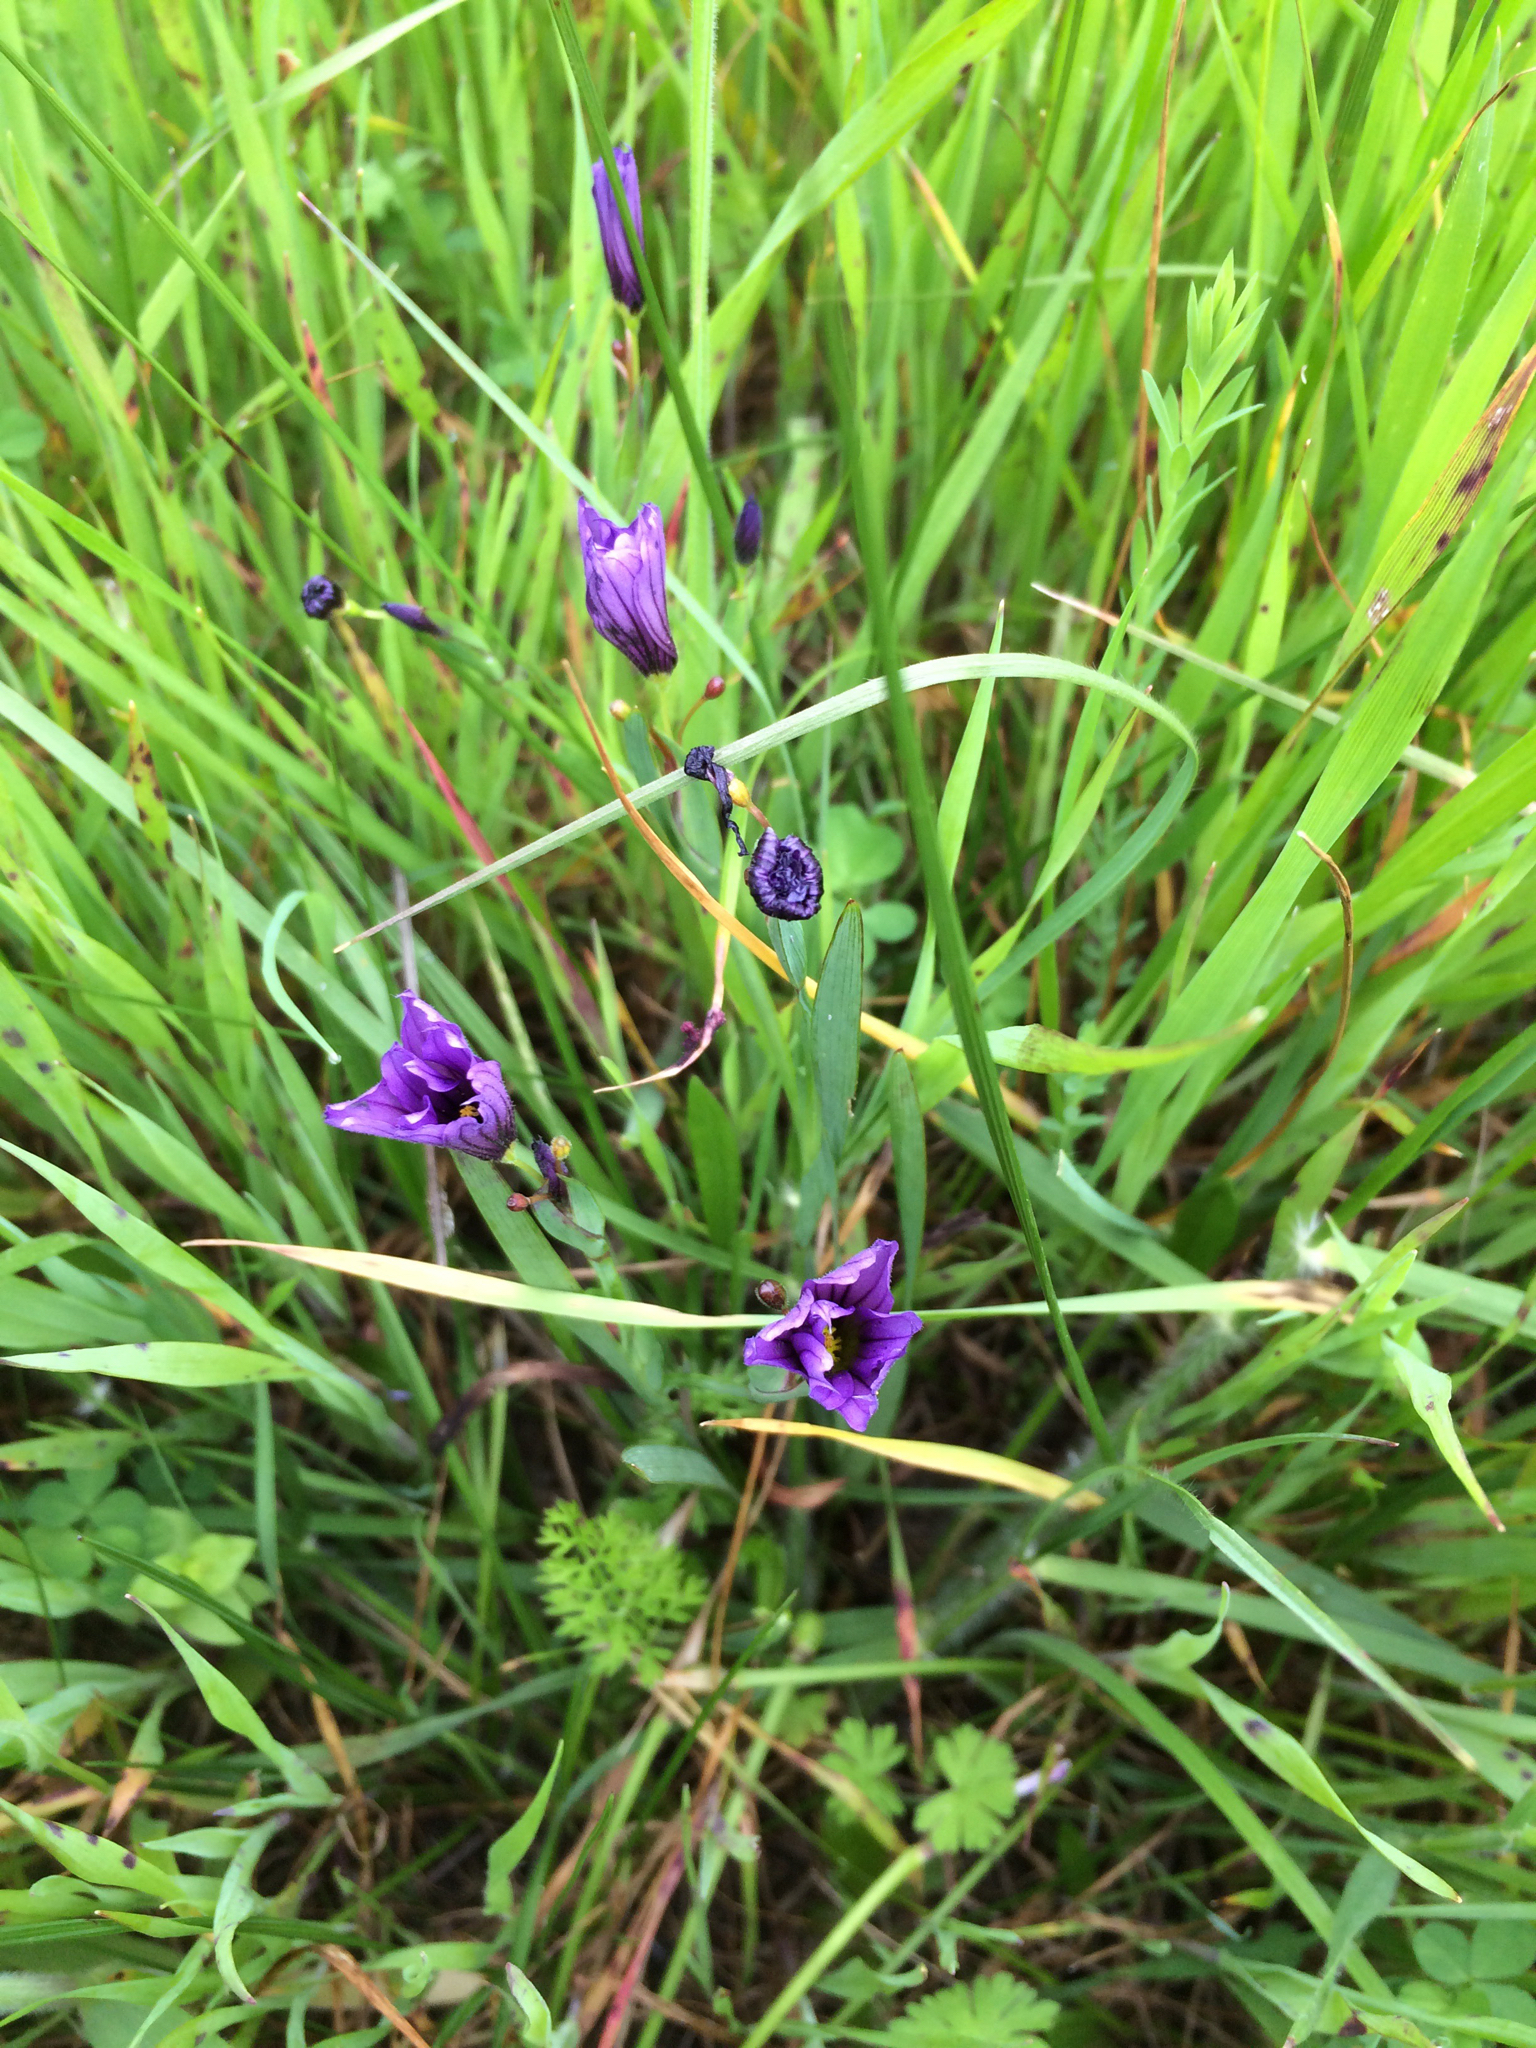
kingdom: Plantae
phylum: Tracheophyta
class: Liliopsida
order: Asparagales
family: Iridaceae
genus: Sisyrinchium
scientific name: Sisyrinchium bellum
